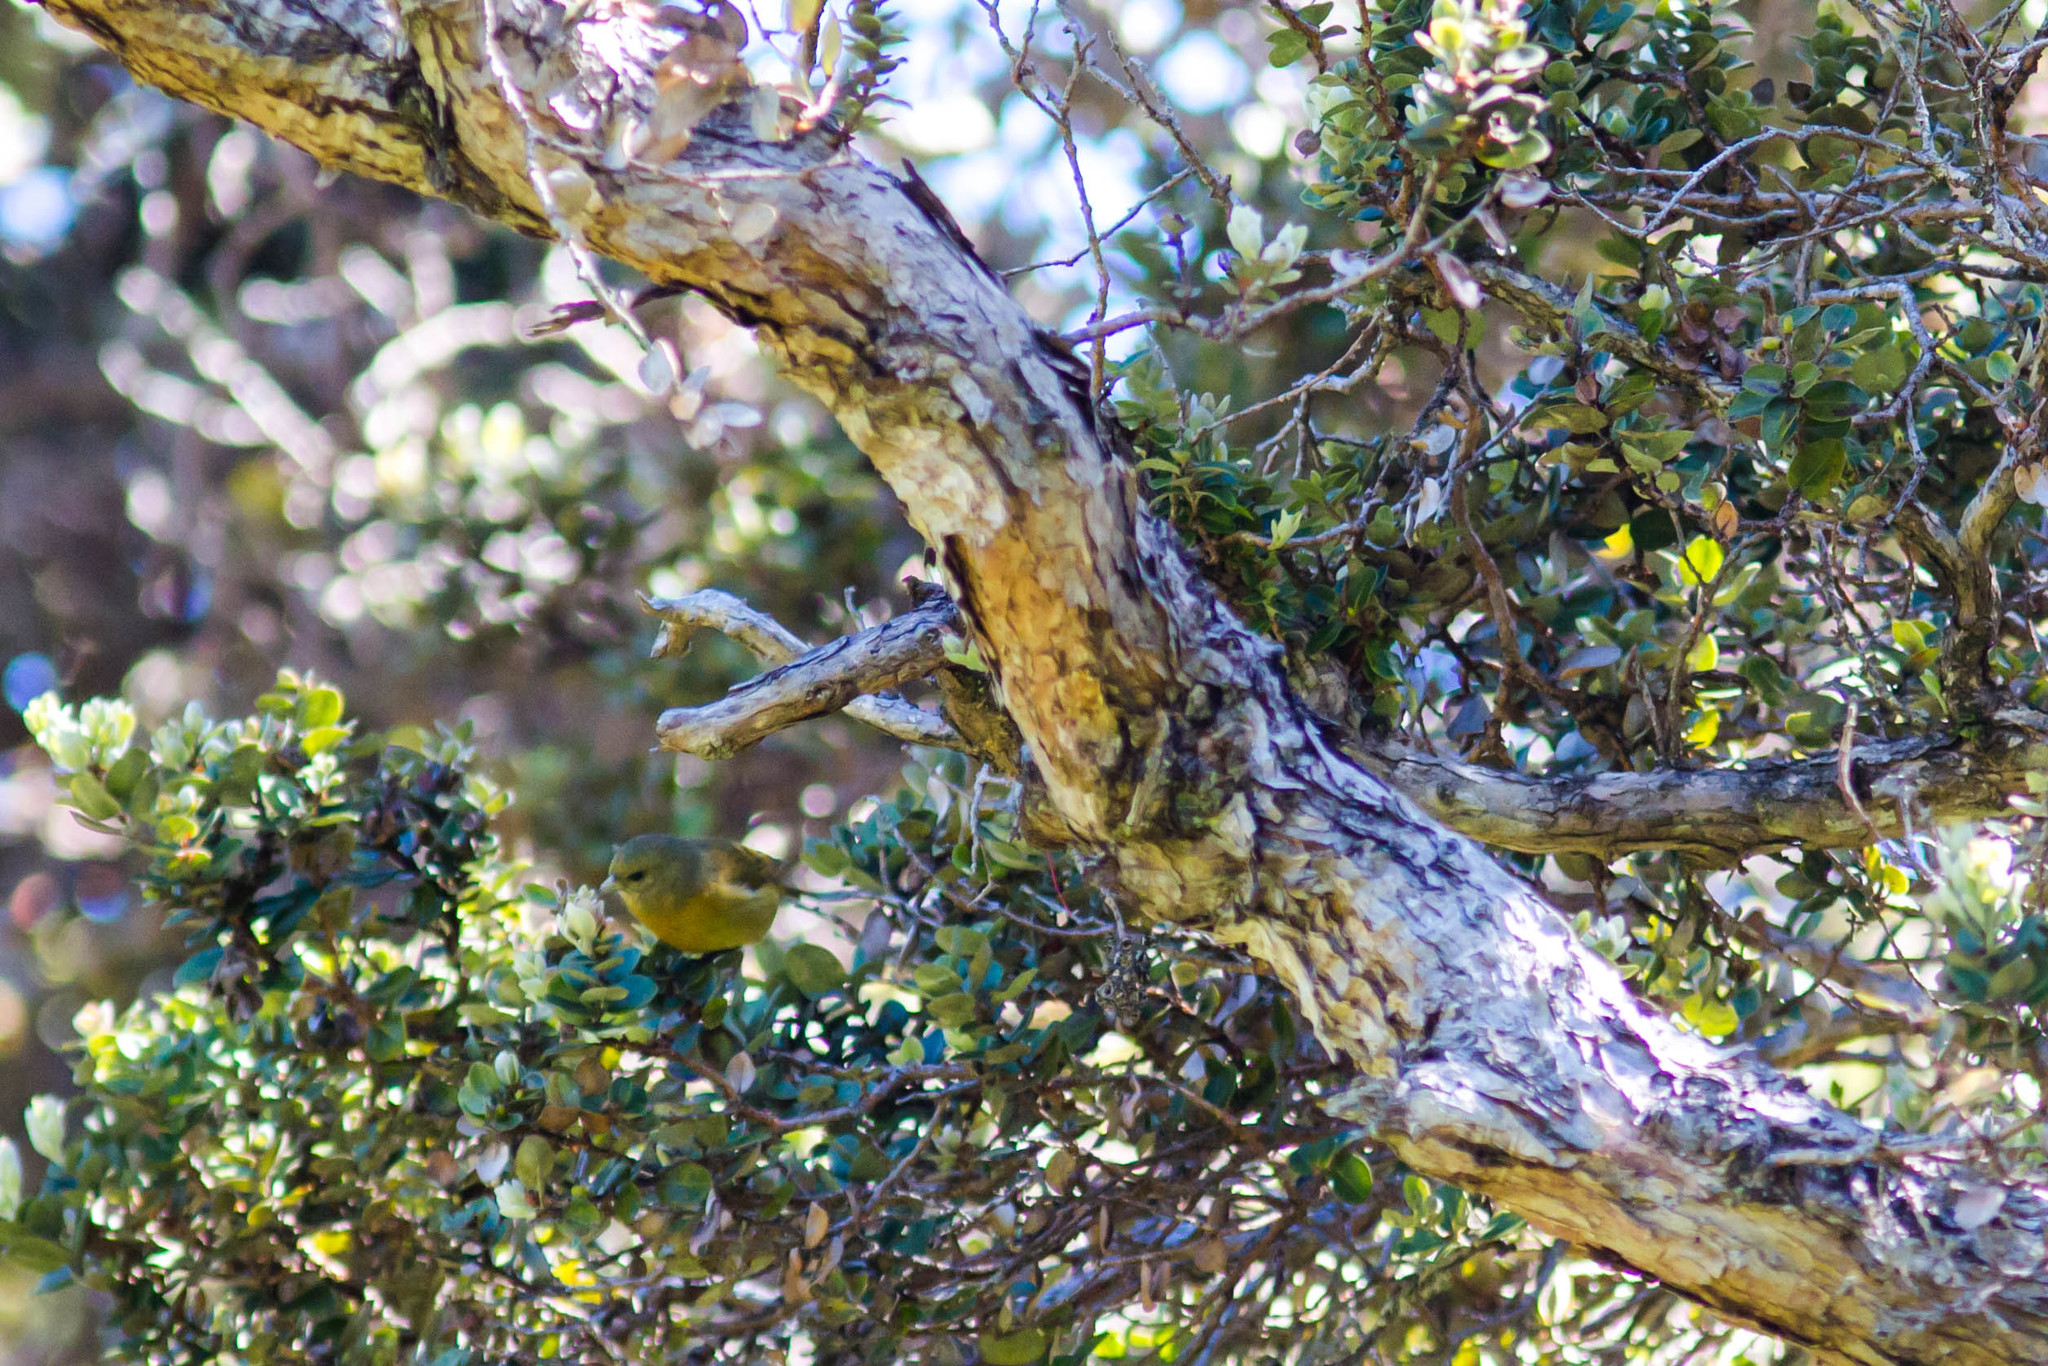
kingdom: Animalia
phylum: Chordata
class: Aves
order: Passeriformes
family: Fringillidae
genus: Loxops
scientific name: Loxops coccineus
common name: Hawaii akepa
